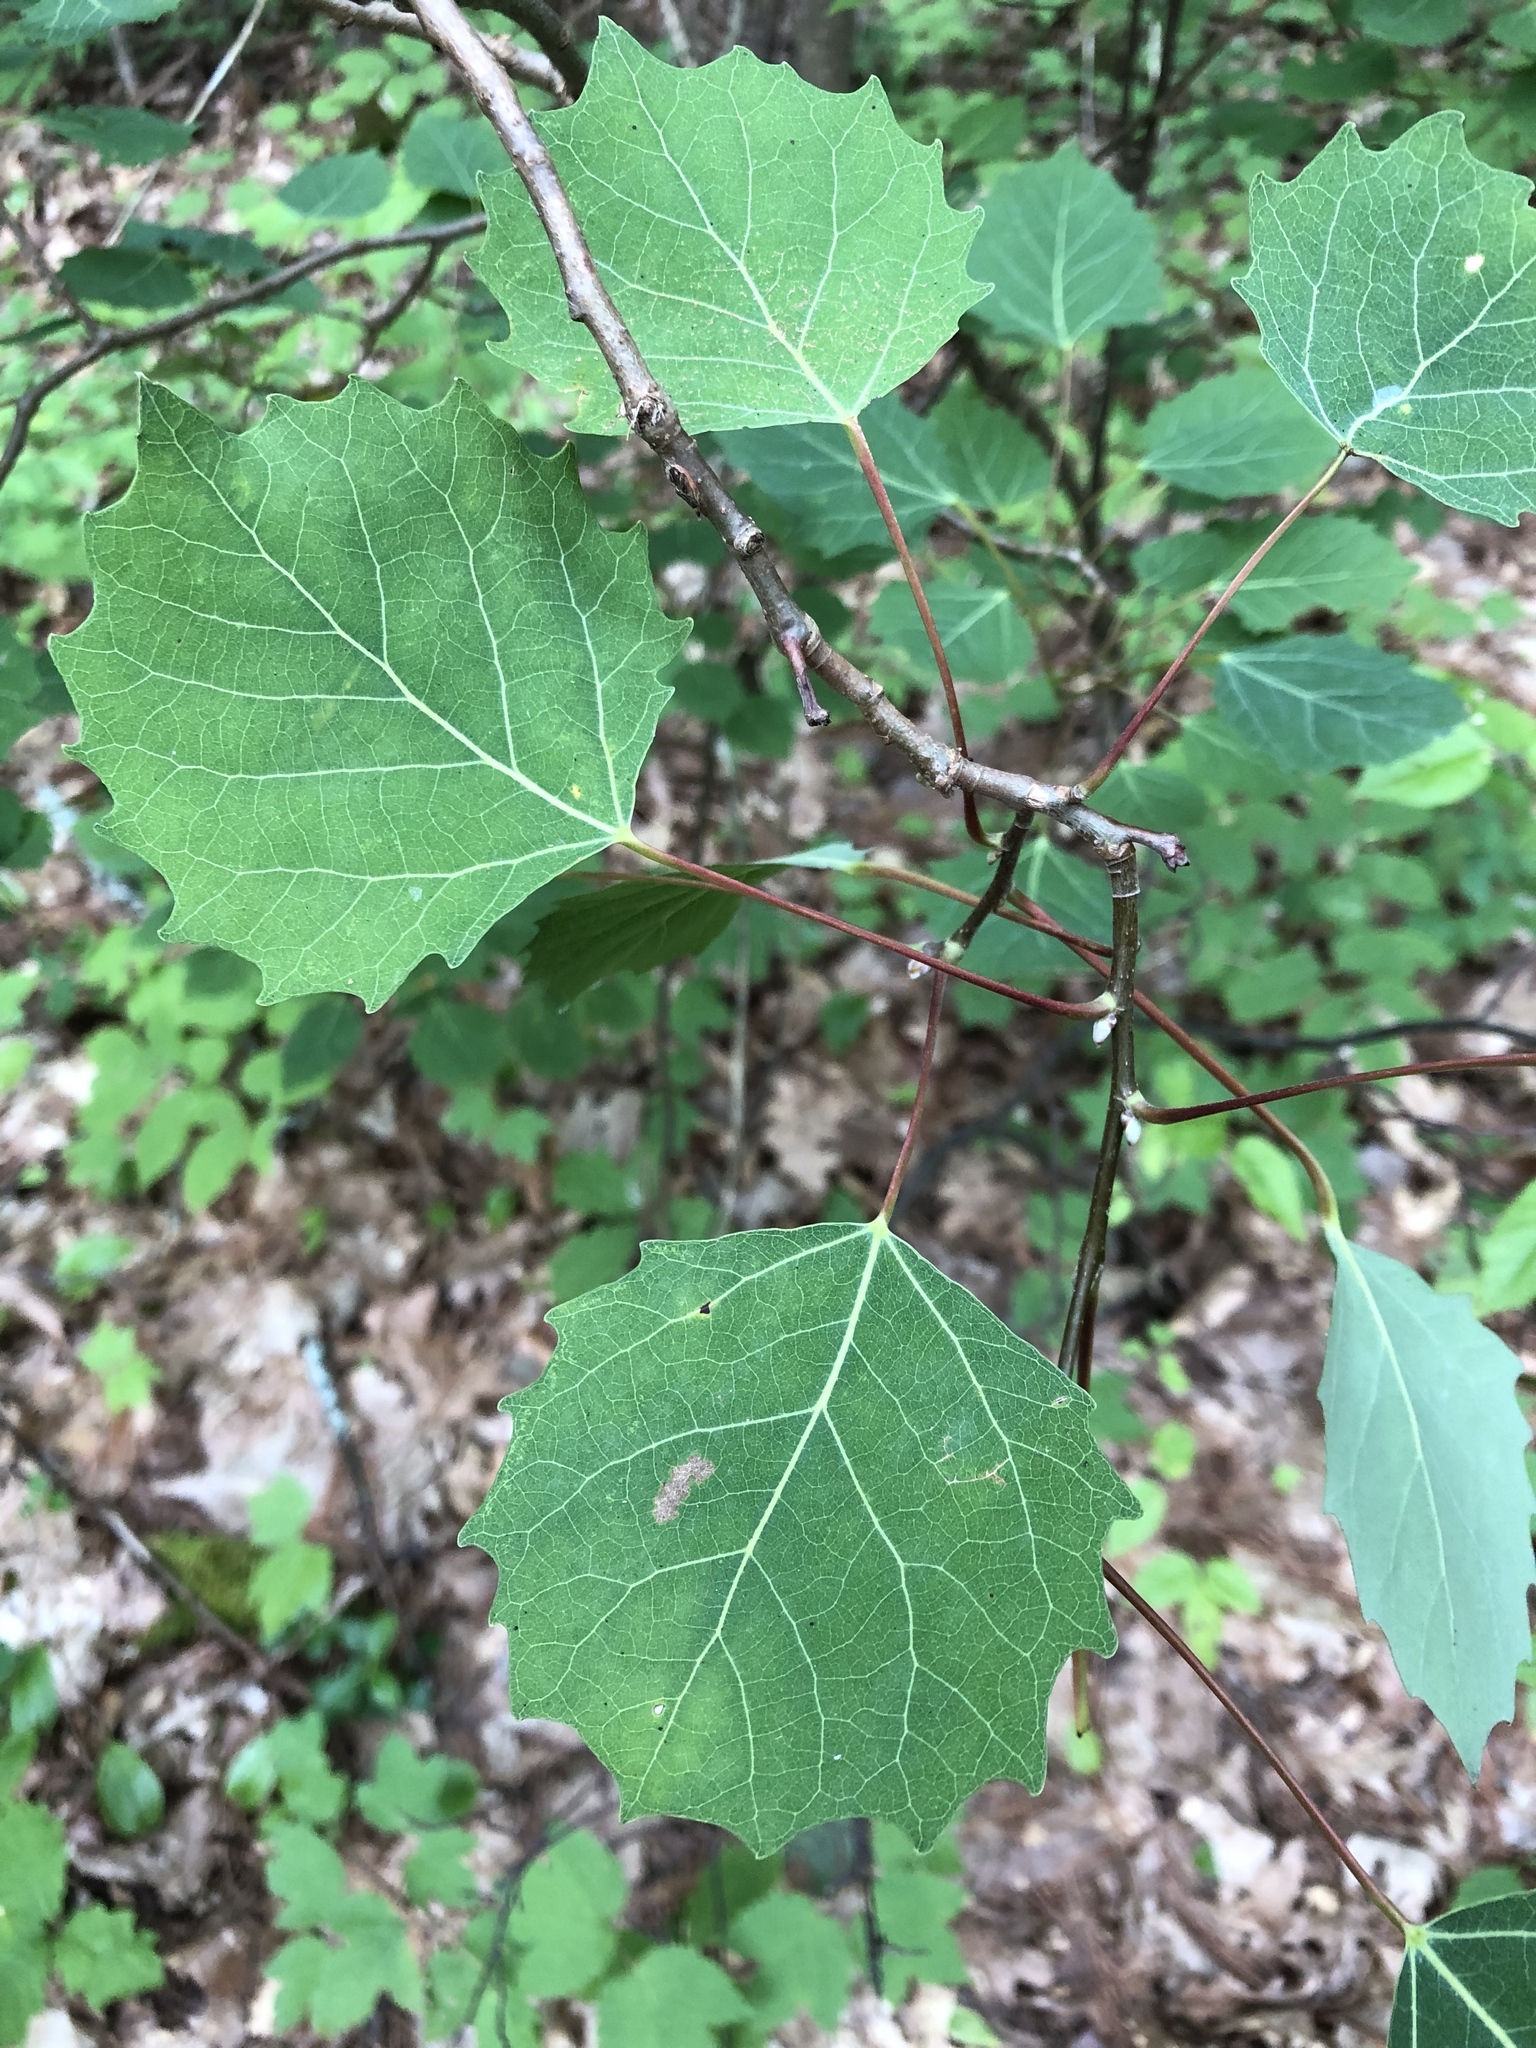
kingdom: Plantae
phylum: Tracheophyta
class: Magnoliopsida
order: Malpighiales
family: Salicaceae
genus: Populus
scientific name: Populus grandidentata
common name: Bigtooth aspen
